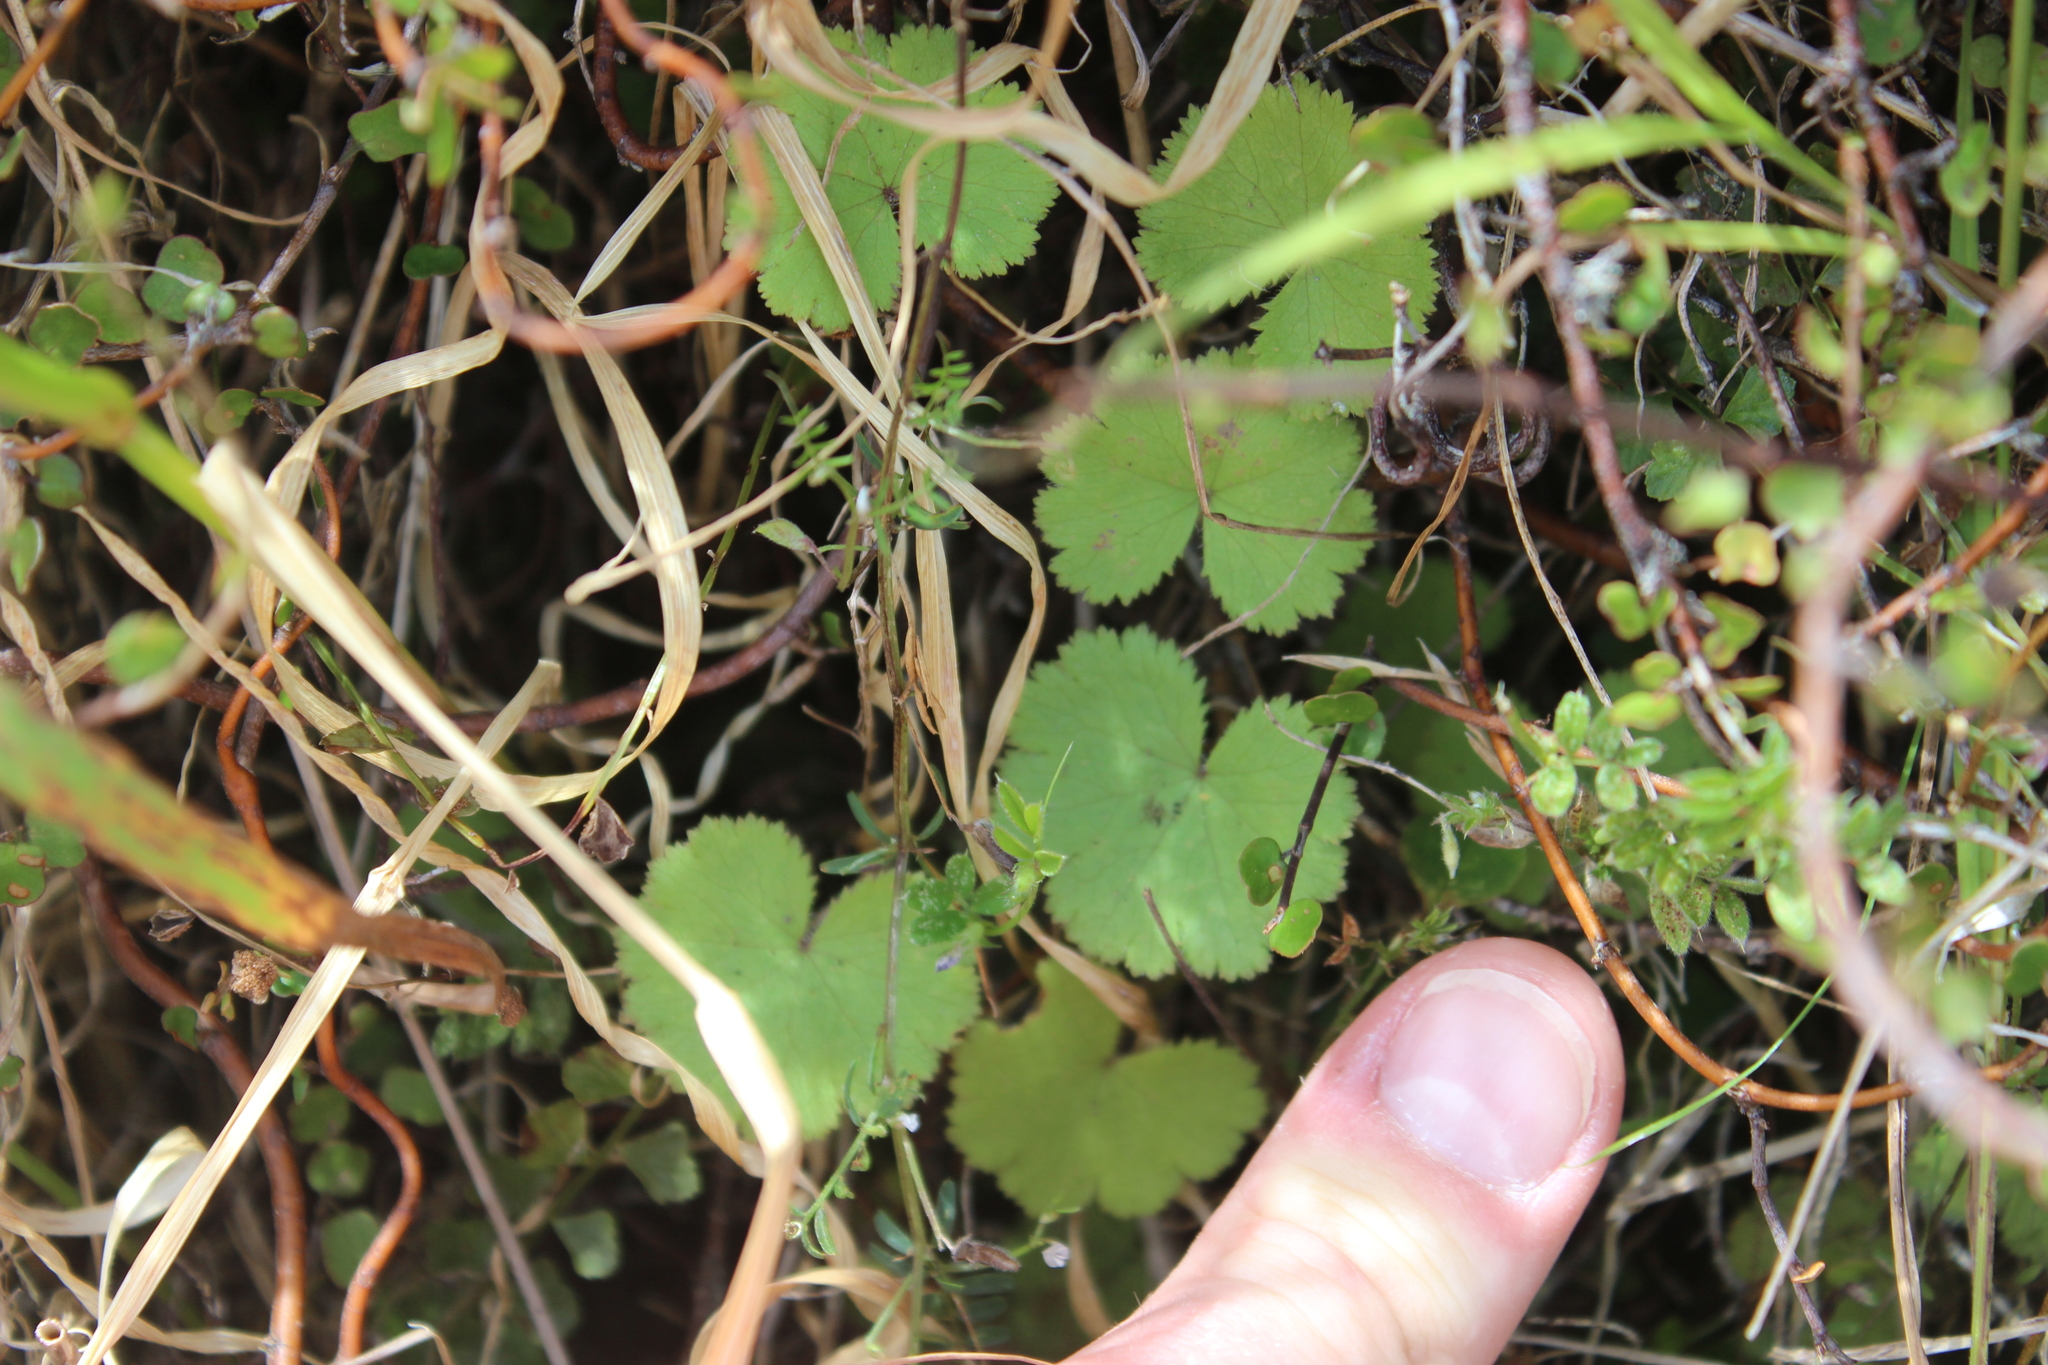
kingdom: Plantae
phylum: Tracheophyta
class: Magnoliopsida
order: Apiales
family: Araliaceae
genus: Hydrocotyle
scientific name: Hydrocotyle moschata
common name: Hairy pennywort
